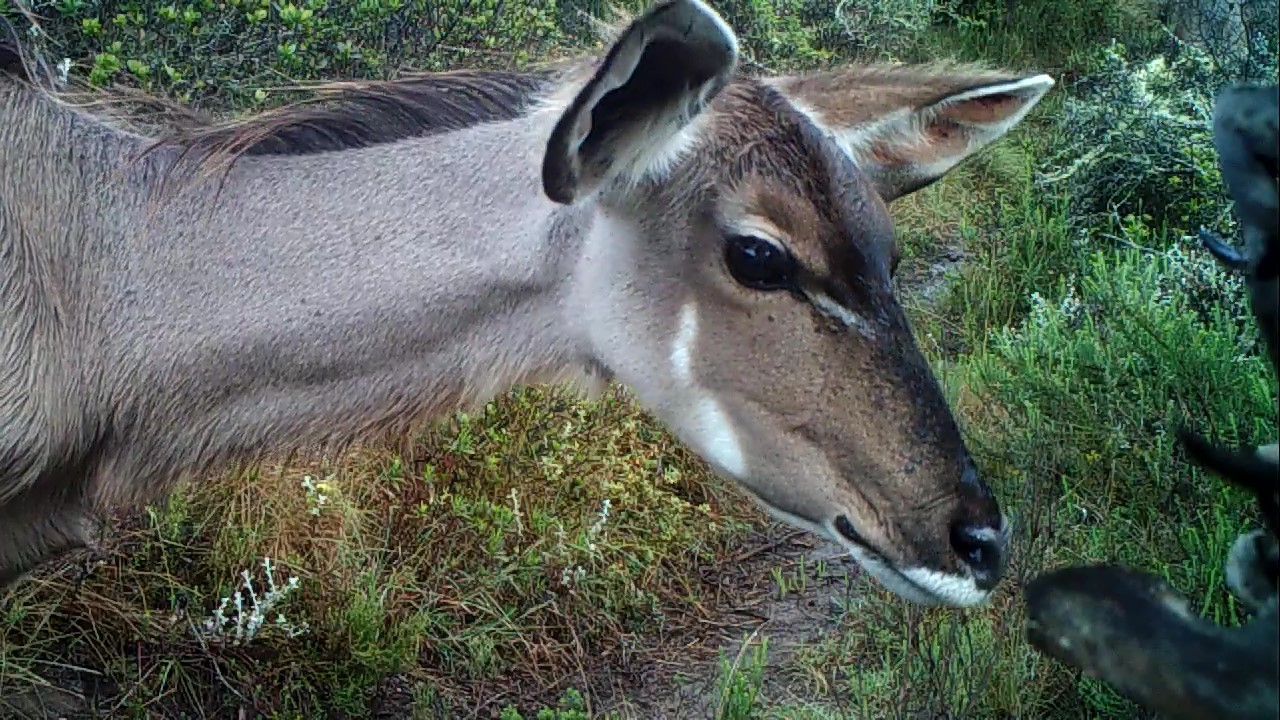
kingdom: Animalia
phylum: Chordata
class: Mammalia
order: Artiodactyla
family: Bovidae
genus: Tragelaphus
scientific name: Tragelaphus strepsiceros
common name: Greater kudu
